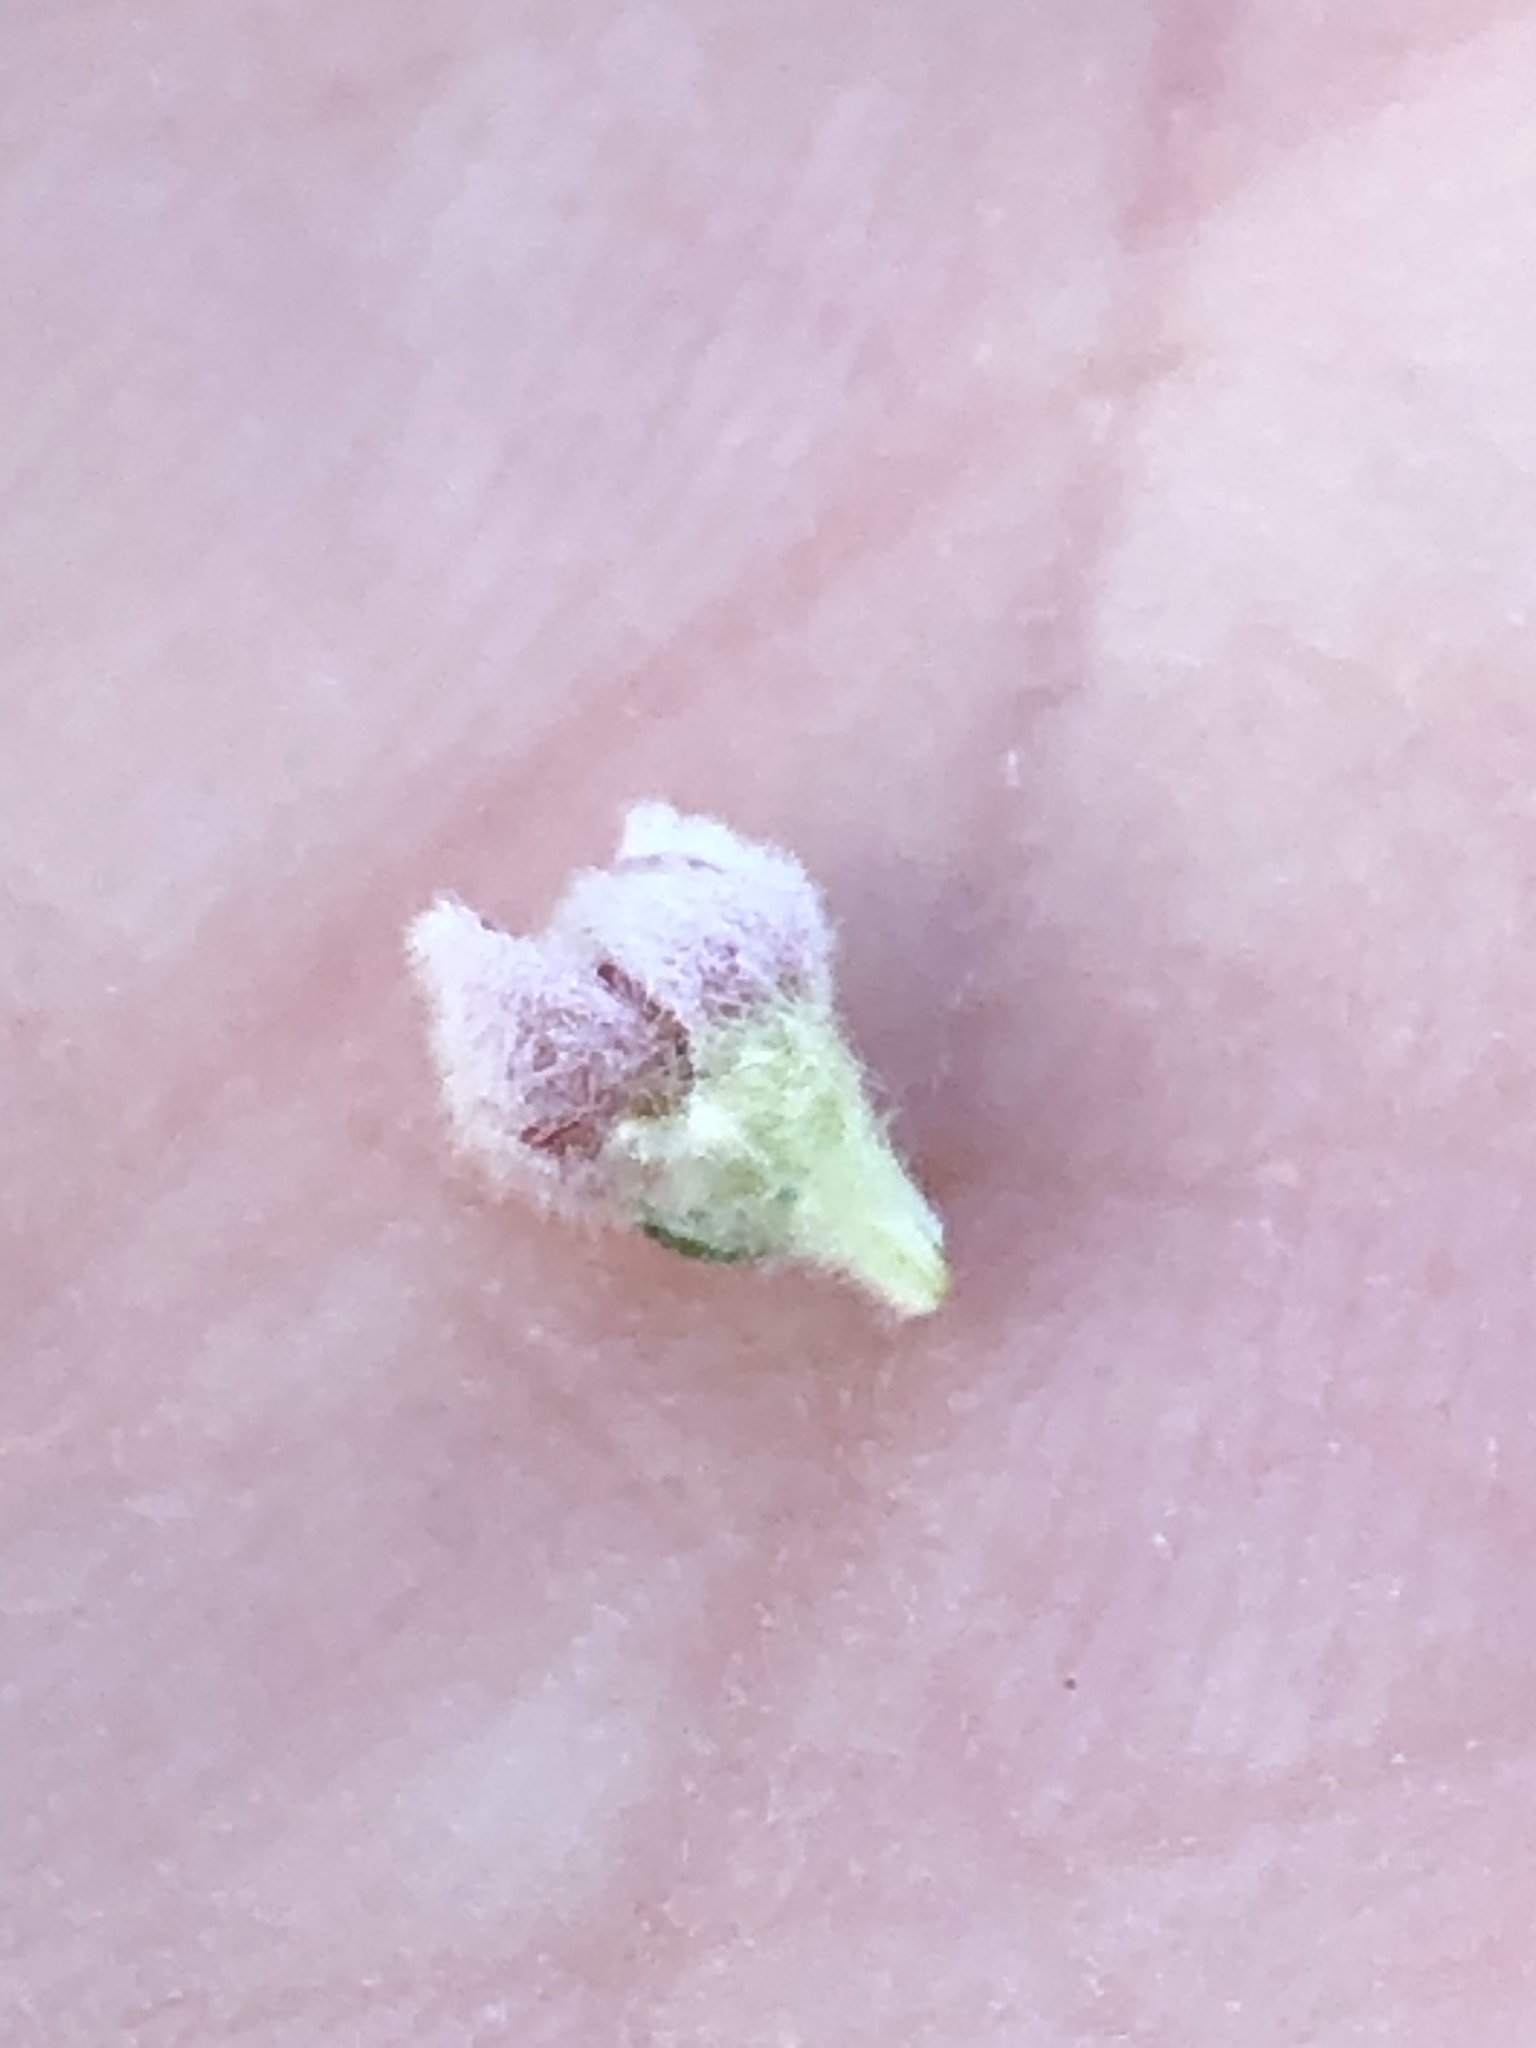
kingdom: Plantae
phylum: Tracheophyta
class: Magnoliopsida
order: Rosales
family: Rhamnaceae
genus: Phylica
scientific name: Phylica purpurea
